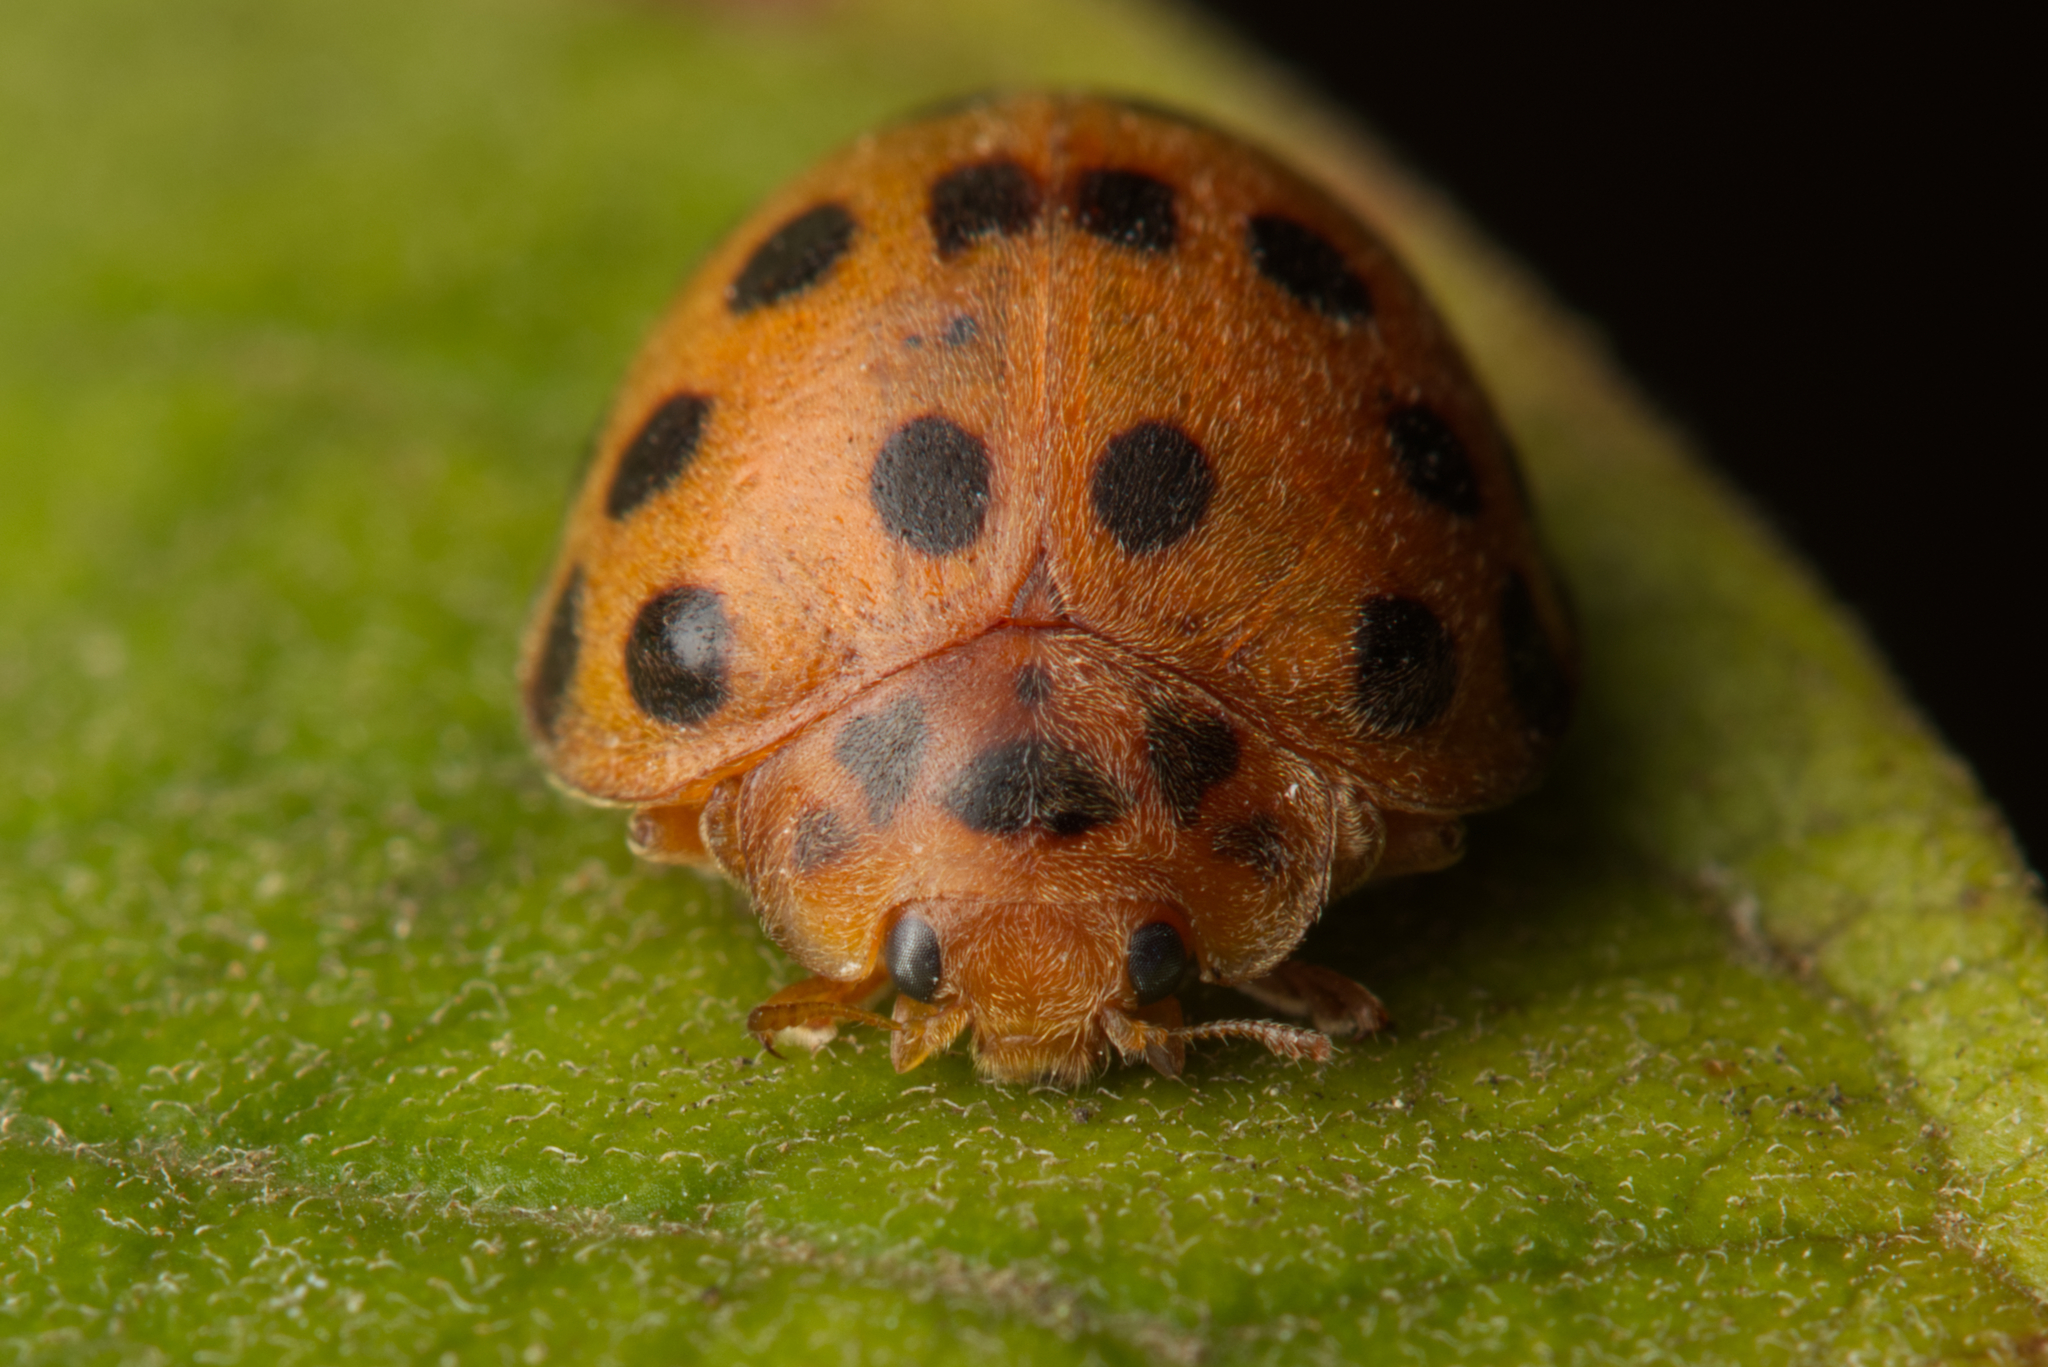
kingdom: Animalia
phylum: Arthropoda
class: Insecta
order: Coleoptera
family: Coccinellidae
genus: Henosepilachna
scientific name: Henosepilachna vigintioctopunctata
